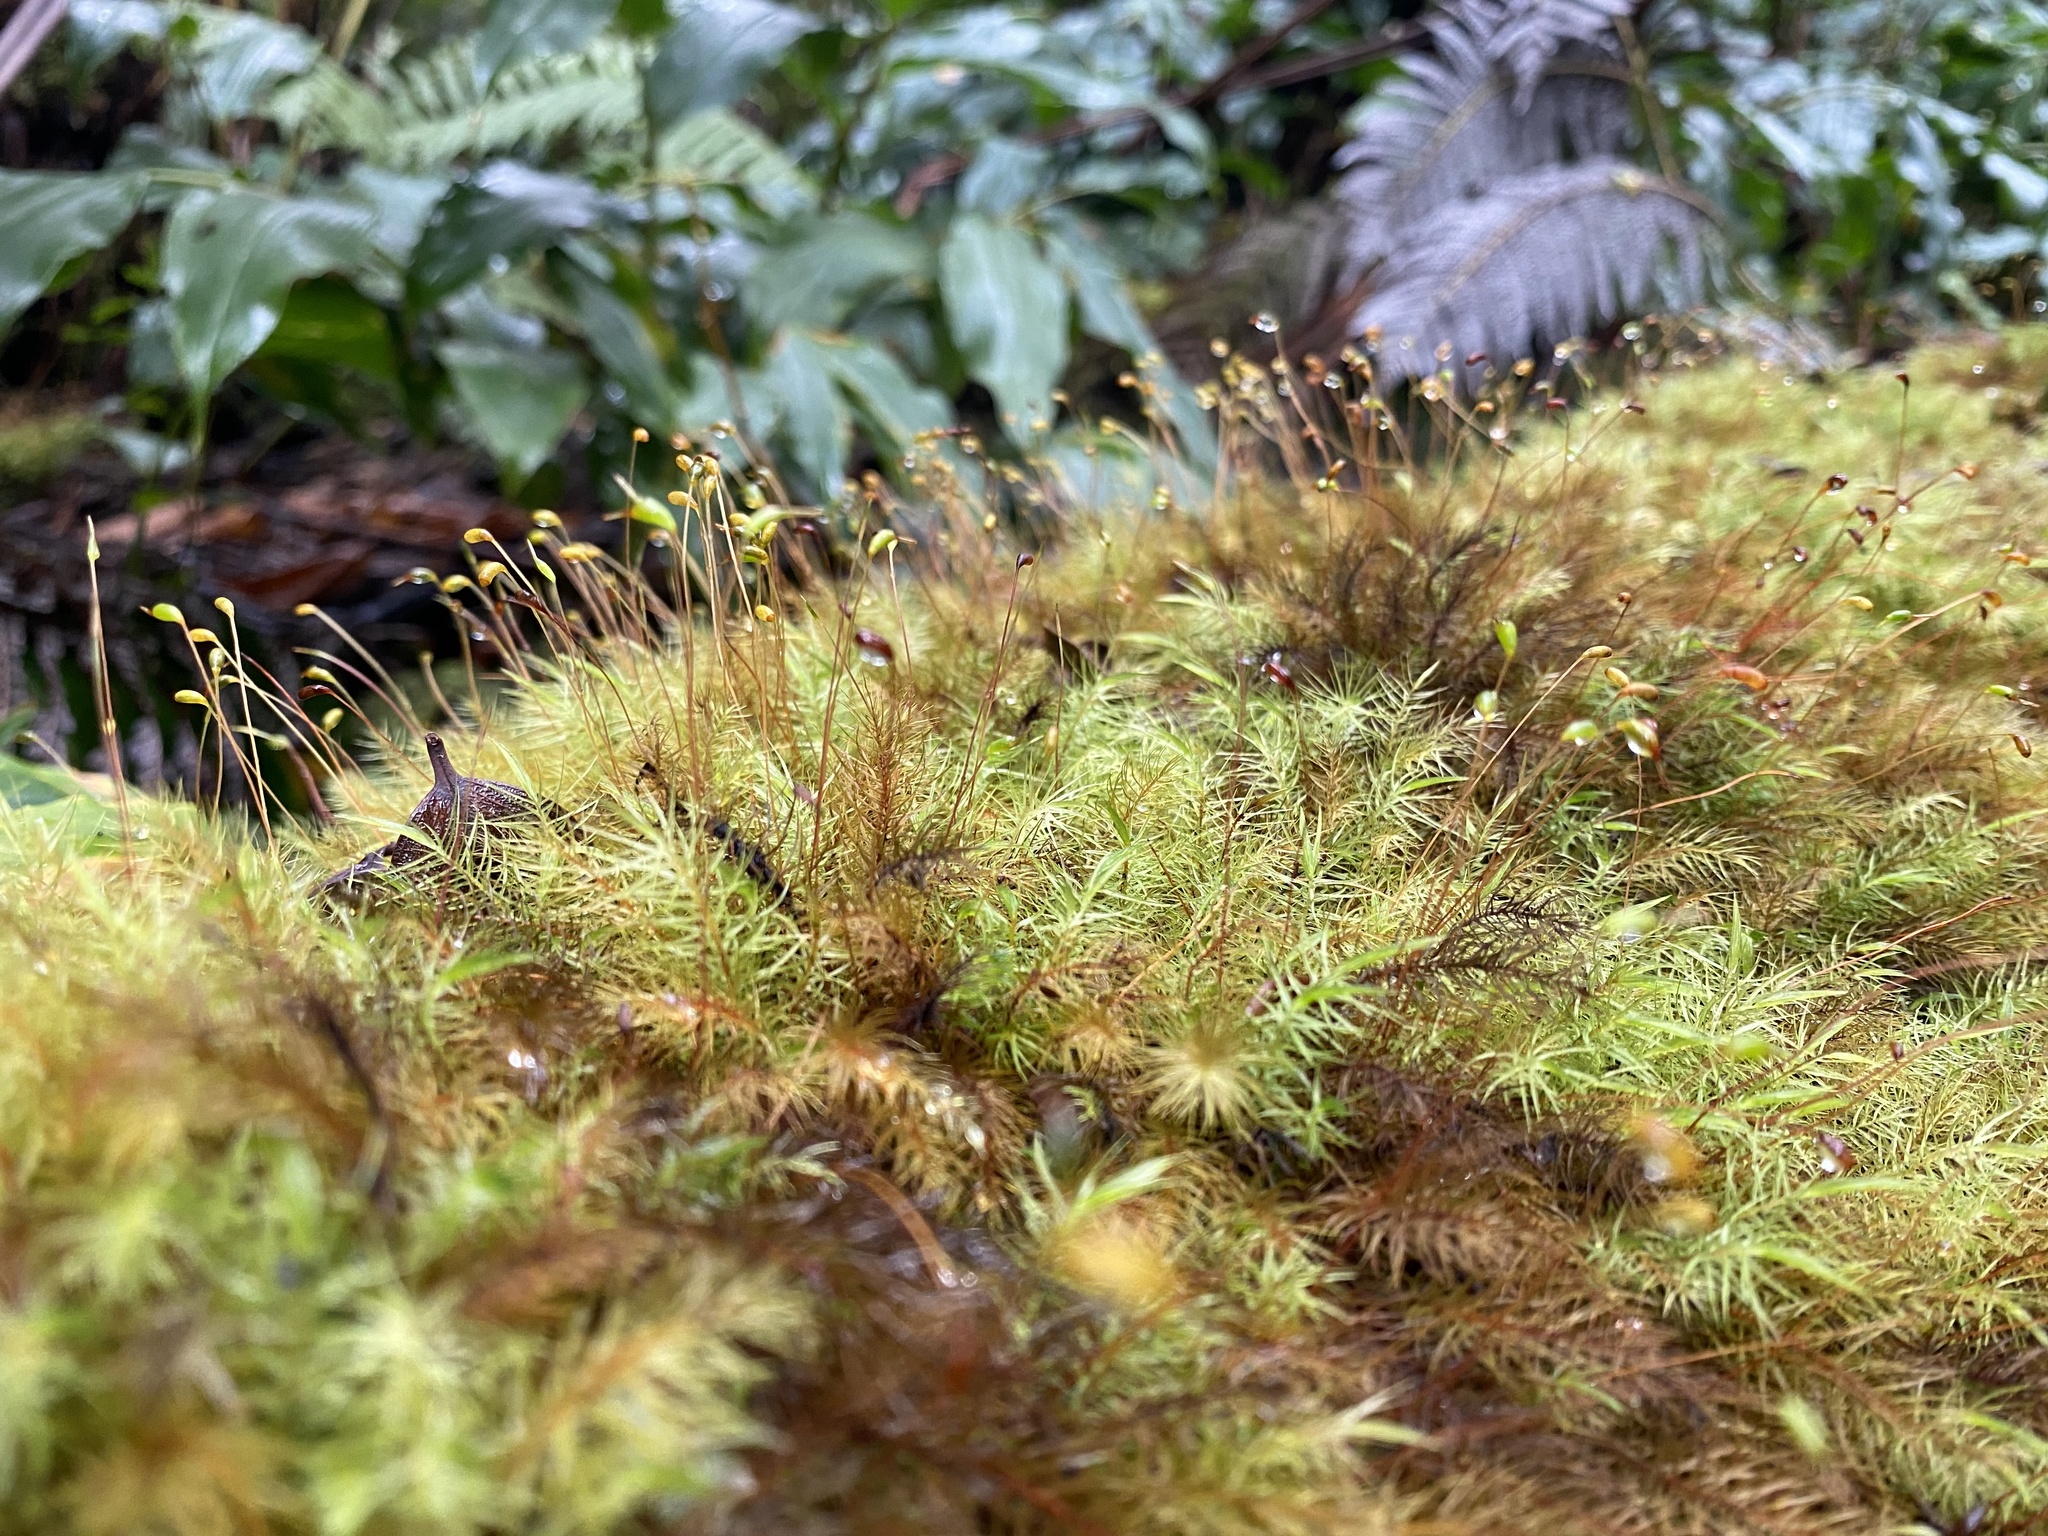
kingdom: Plantae
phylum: Bryophyta
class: Bryopsida
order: Rhizogoniales
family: Calomniaceae
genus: Pyrrhobryum
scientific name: Pyrrhobryum spiniforme
